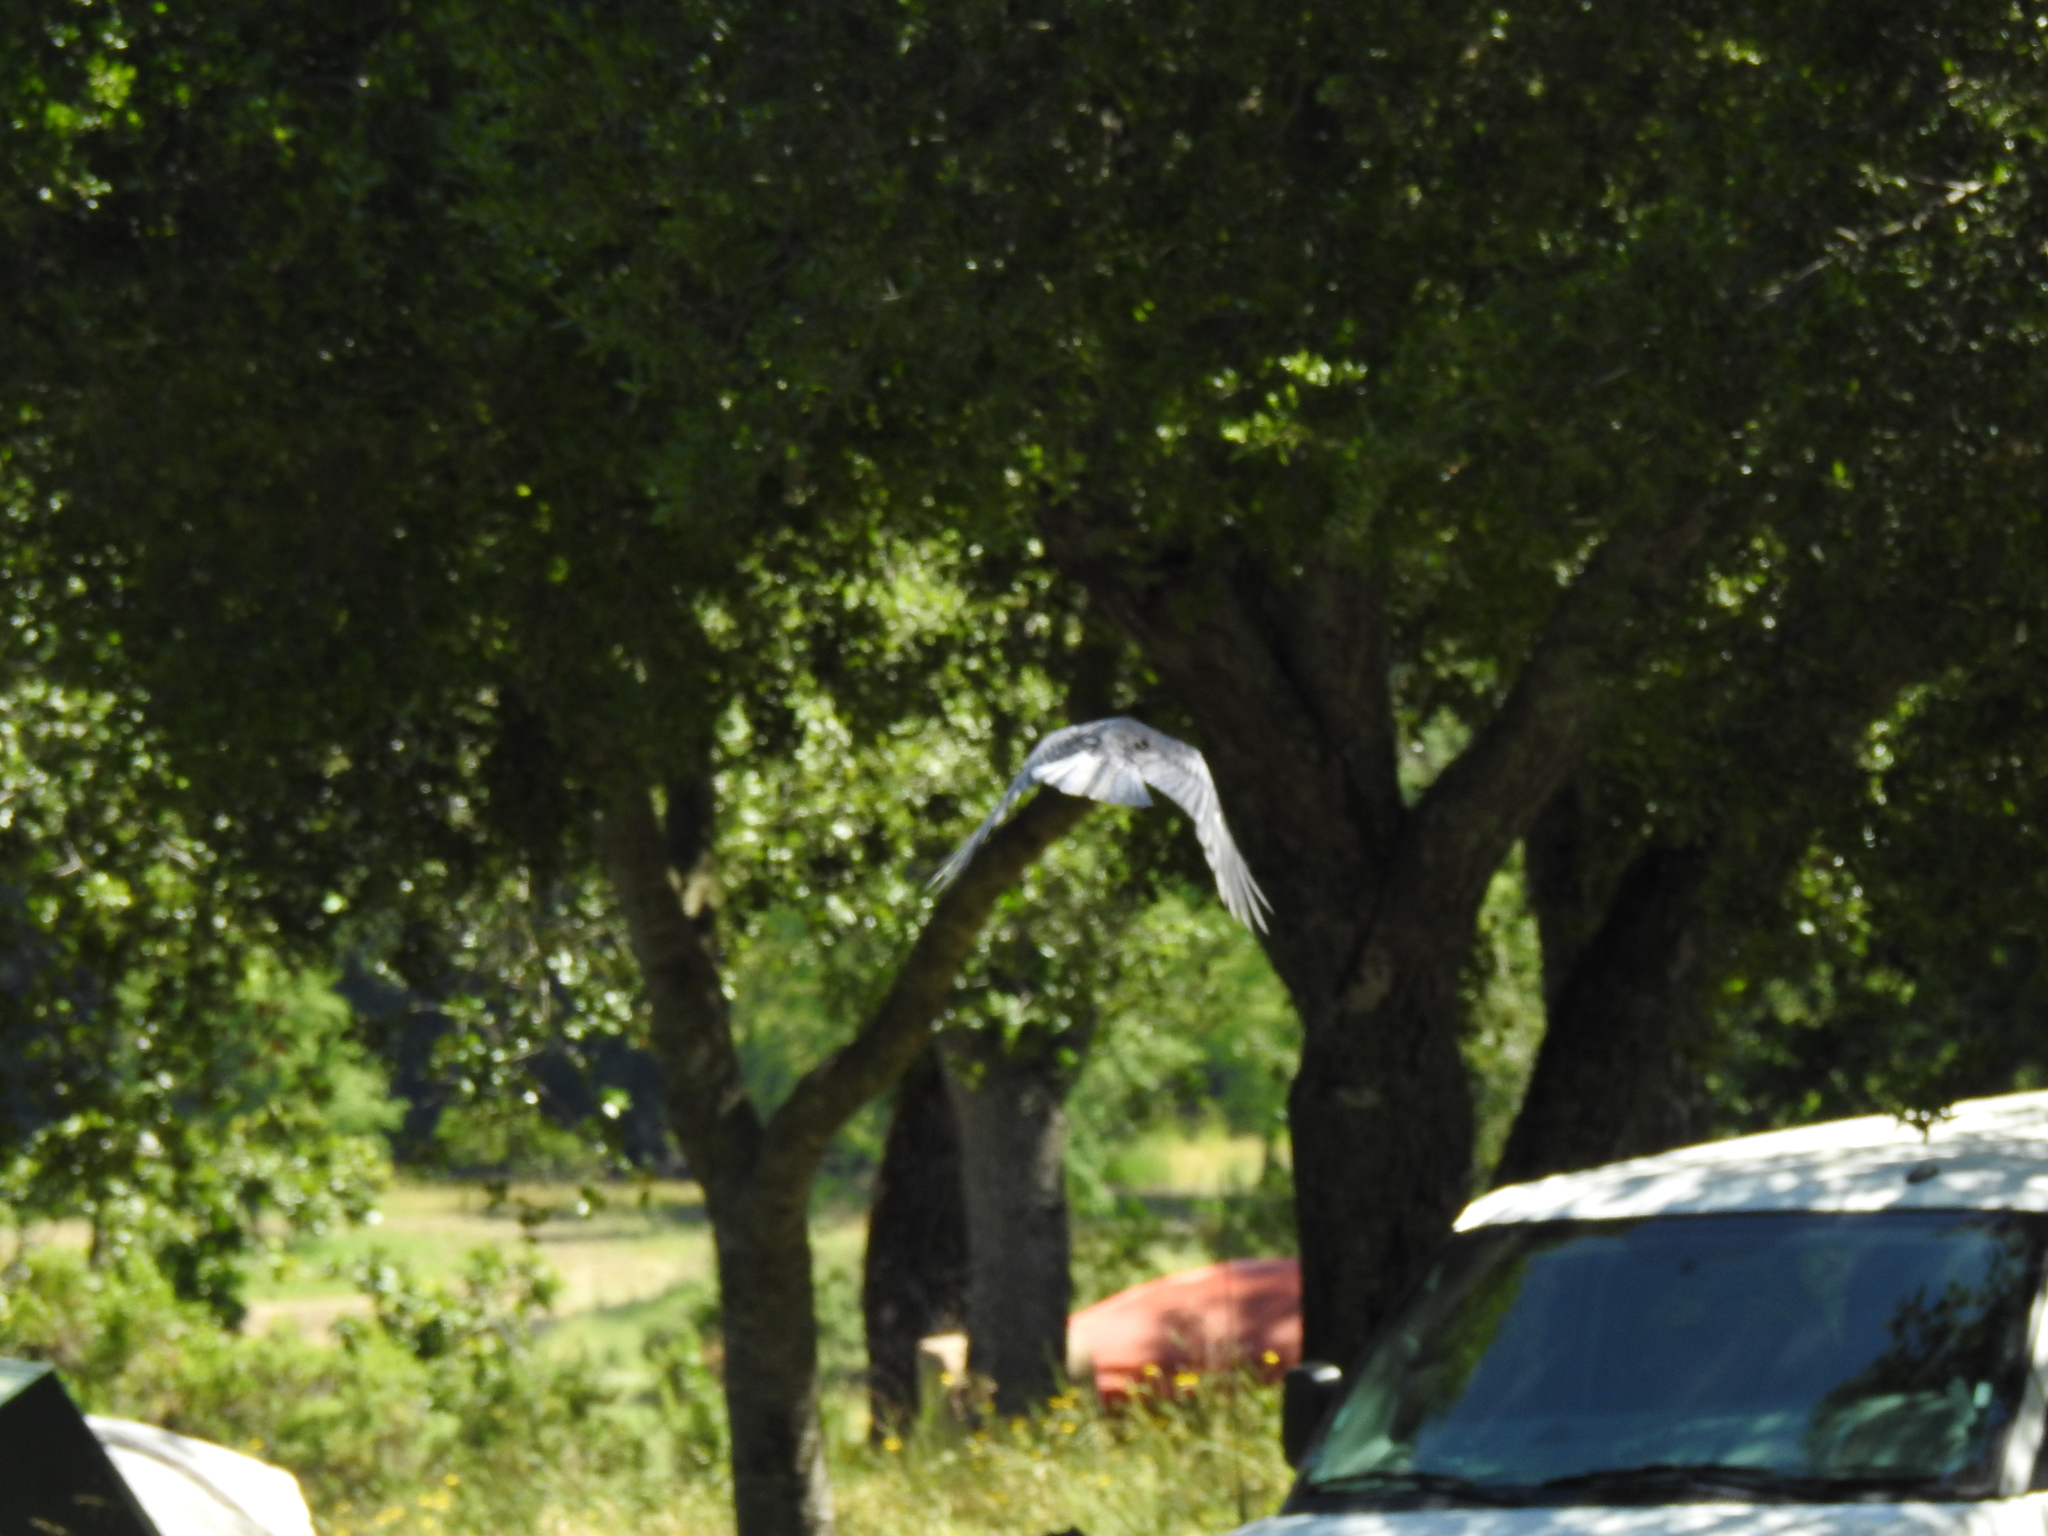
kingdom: Animalia
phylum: Chordata
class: Aves
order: Passeriformes
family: Corvidae
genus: Corvus
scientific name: Corvus brachyrhynchos
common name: American crow
